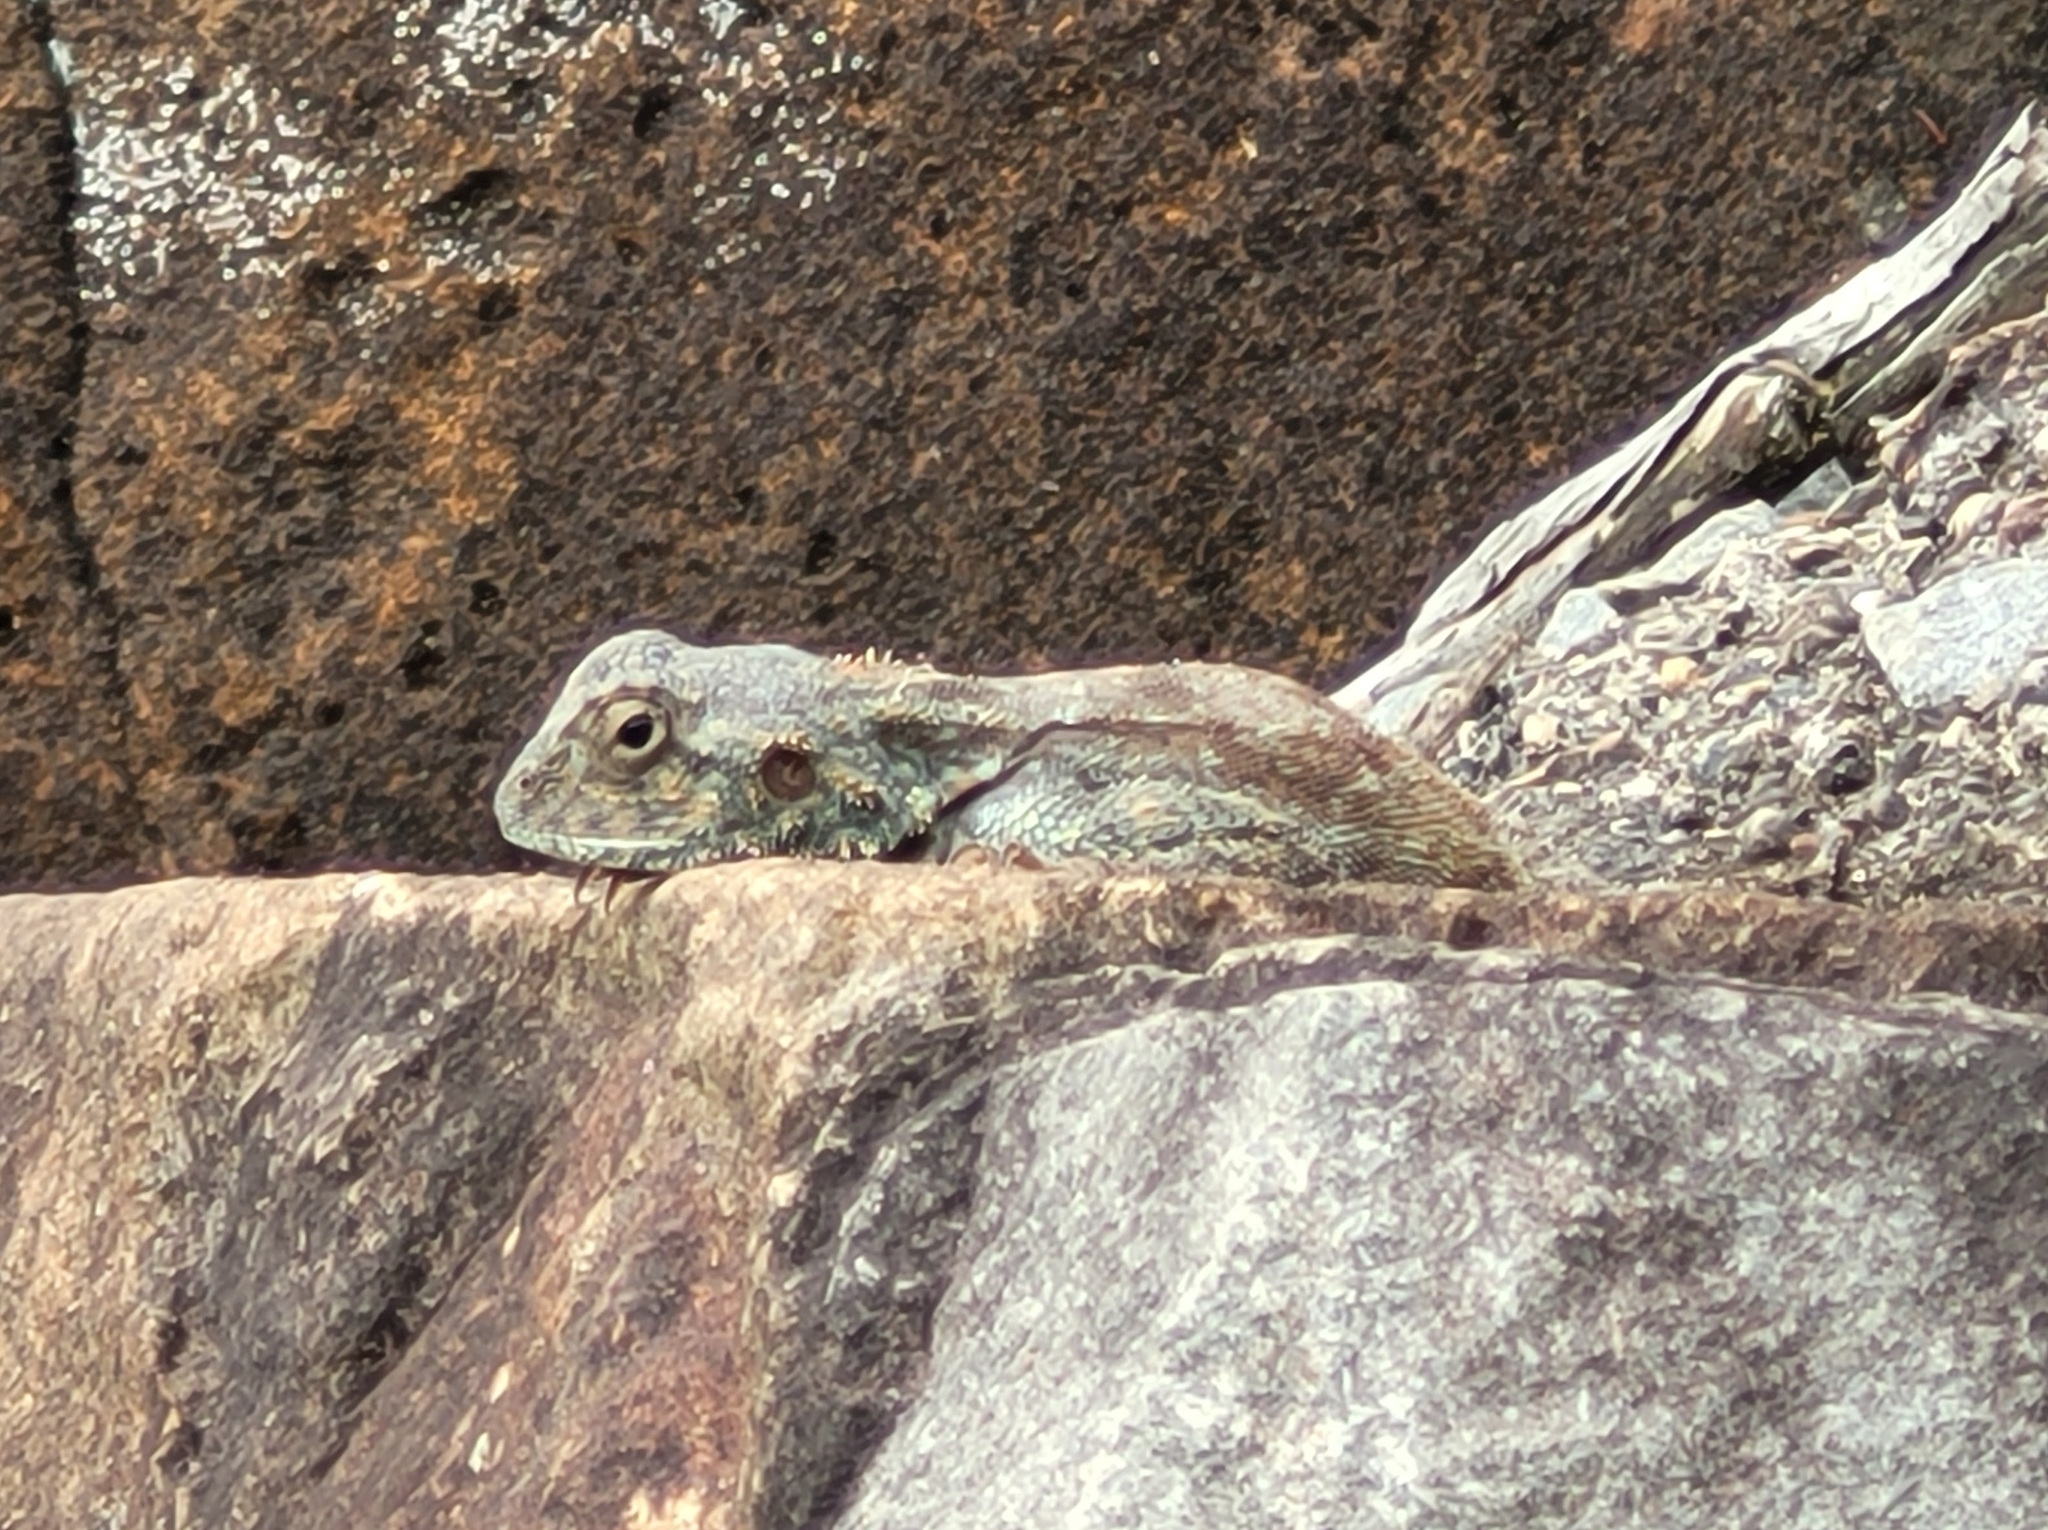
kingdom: Animalia
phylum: Chordata
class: Squamata
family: Agamidae
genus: Agama
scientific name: Agama atra
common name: Southern african rock agama
